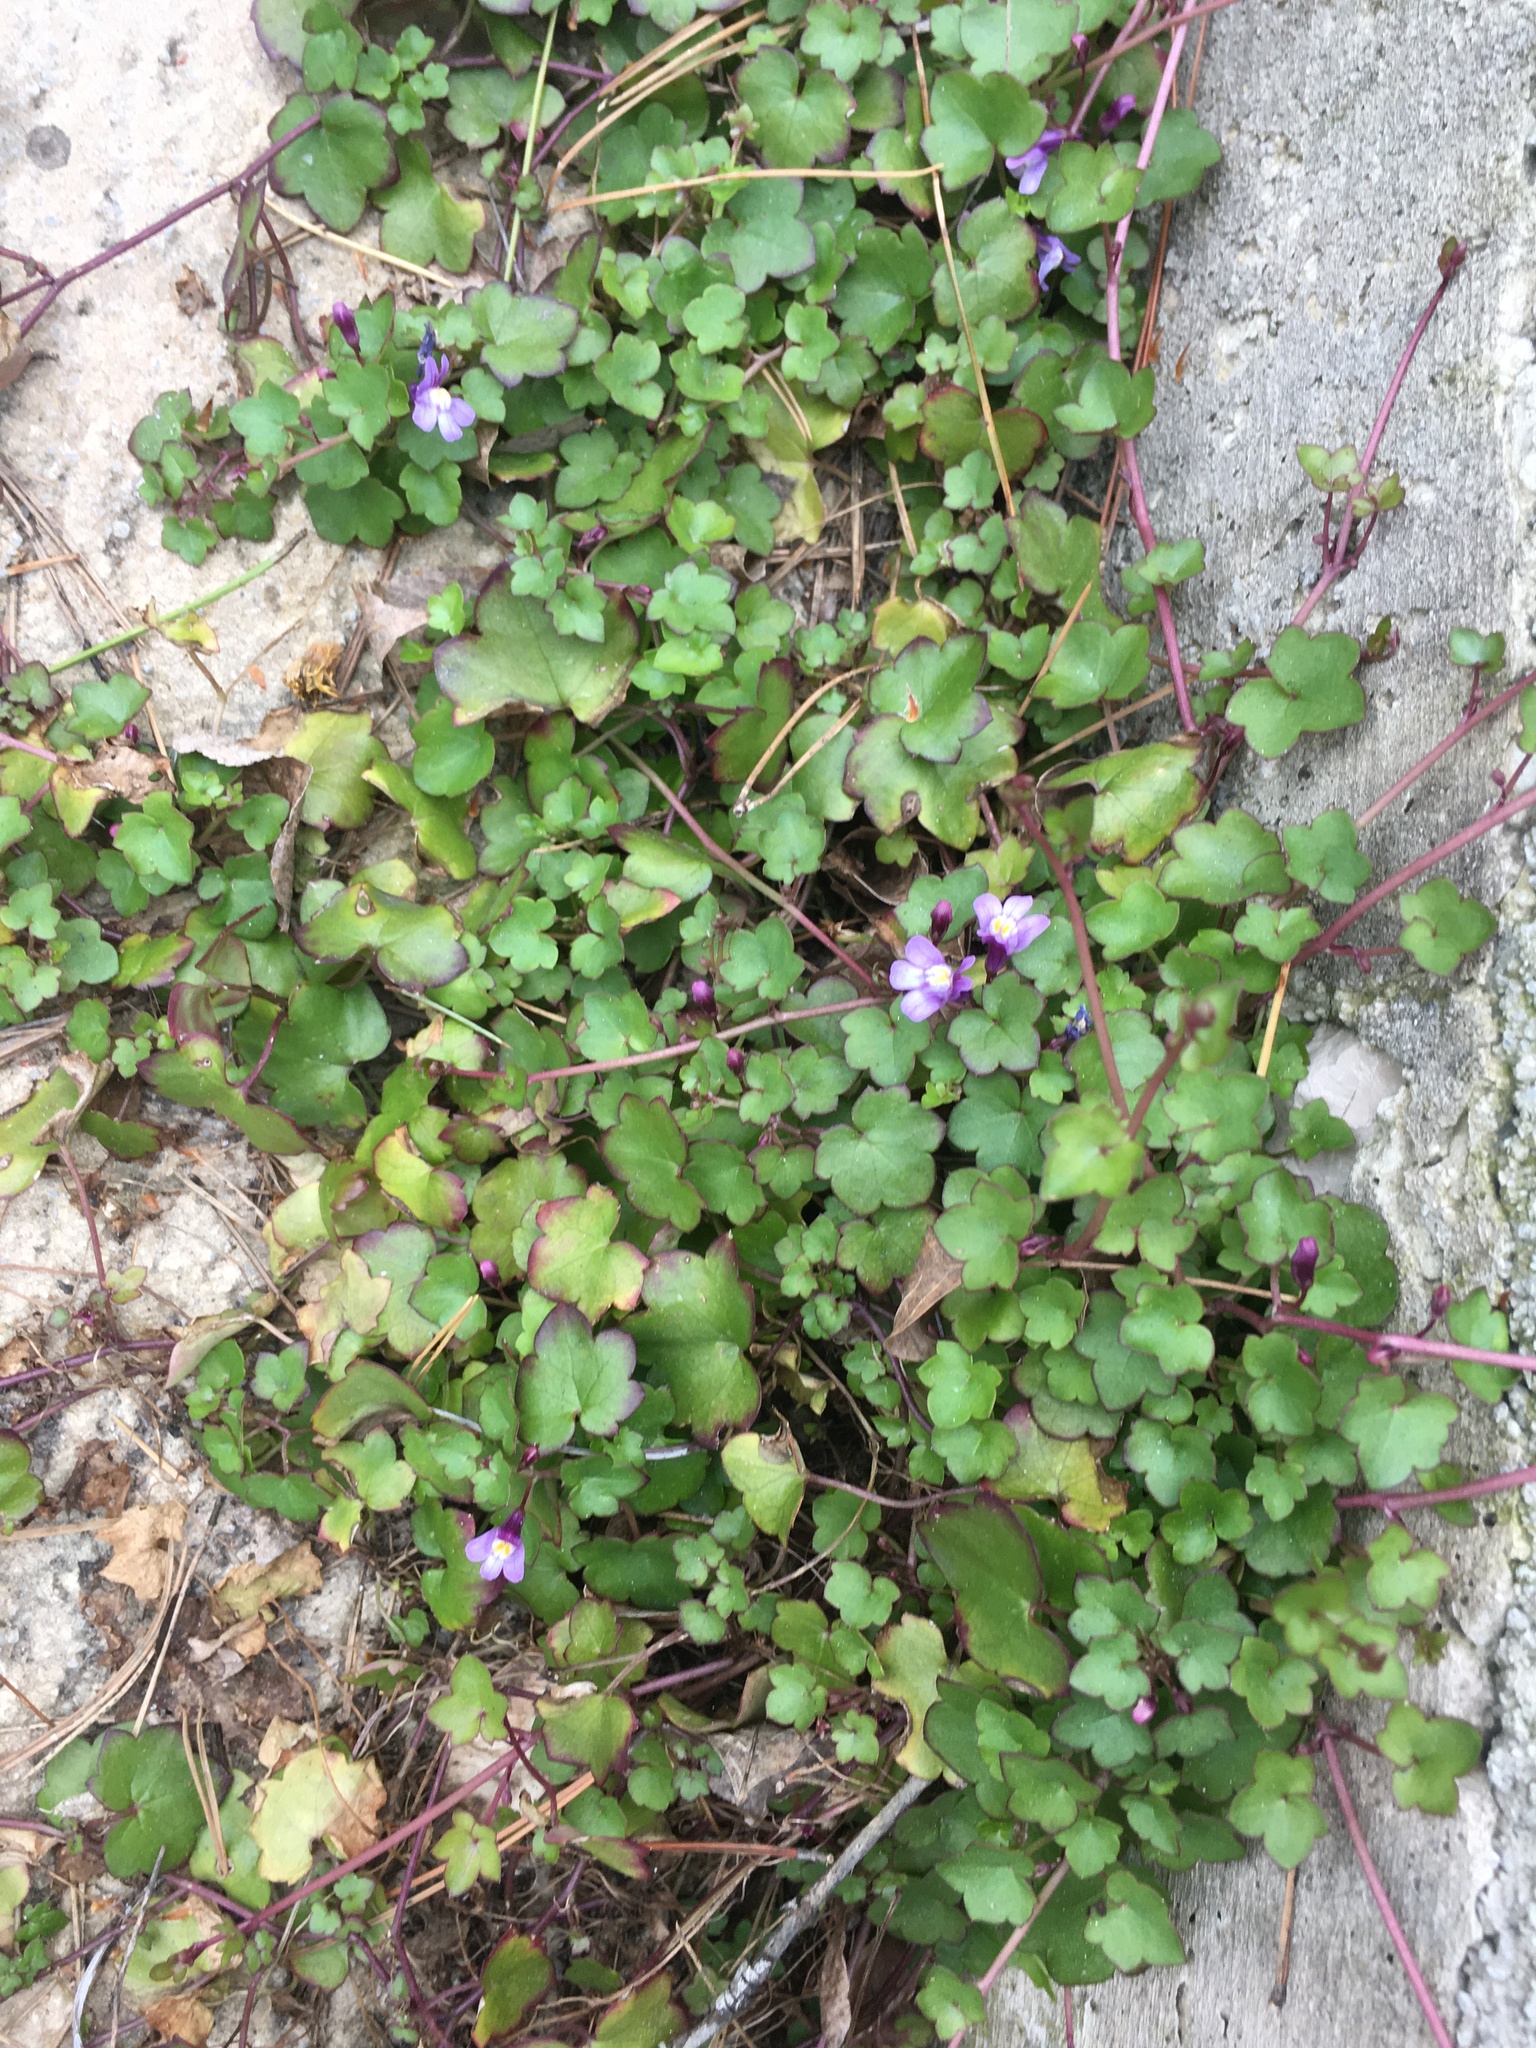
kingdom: Plantae
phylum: Tracheophyta
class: Magnoliopsida
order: Lamiales
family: Plantaginaceae
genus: Cymbalaria
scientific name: Cymbalaria muralis
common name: Ivy-leaved toadflax
